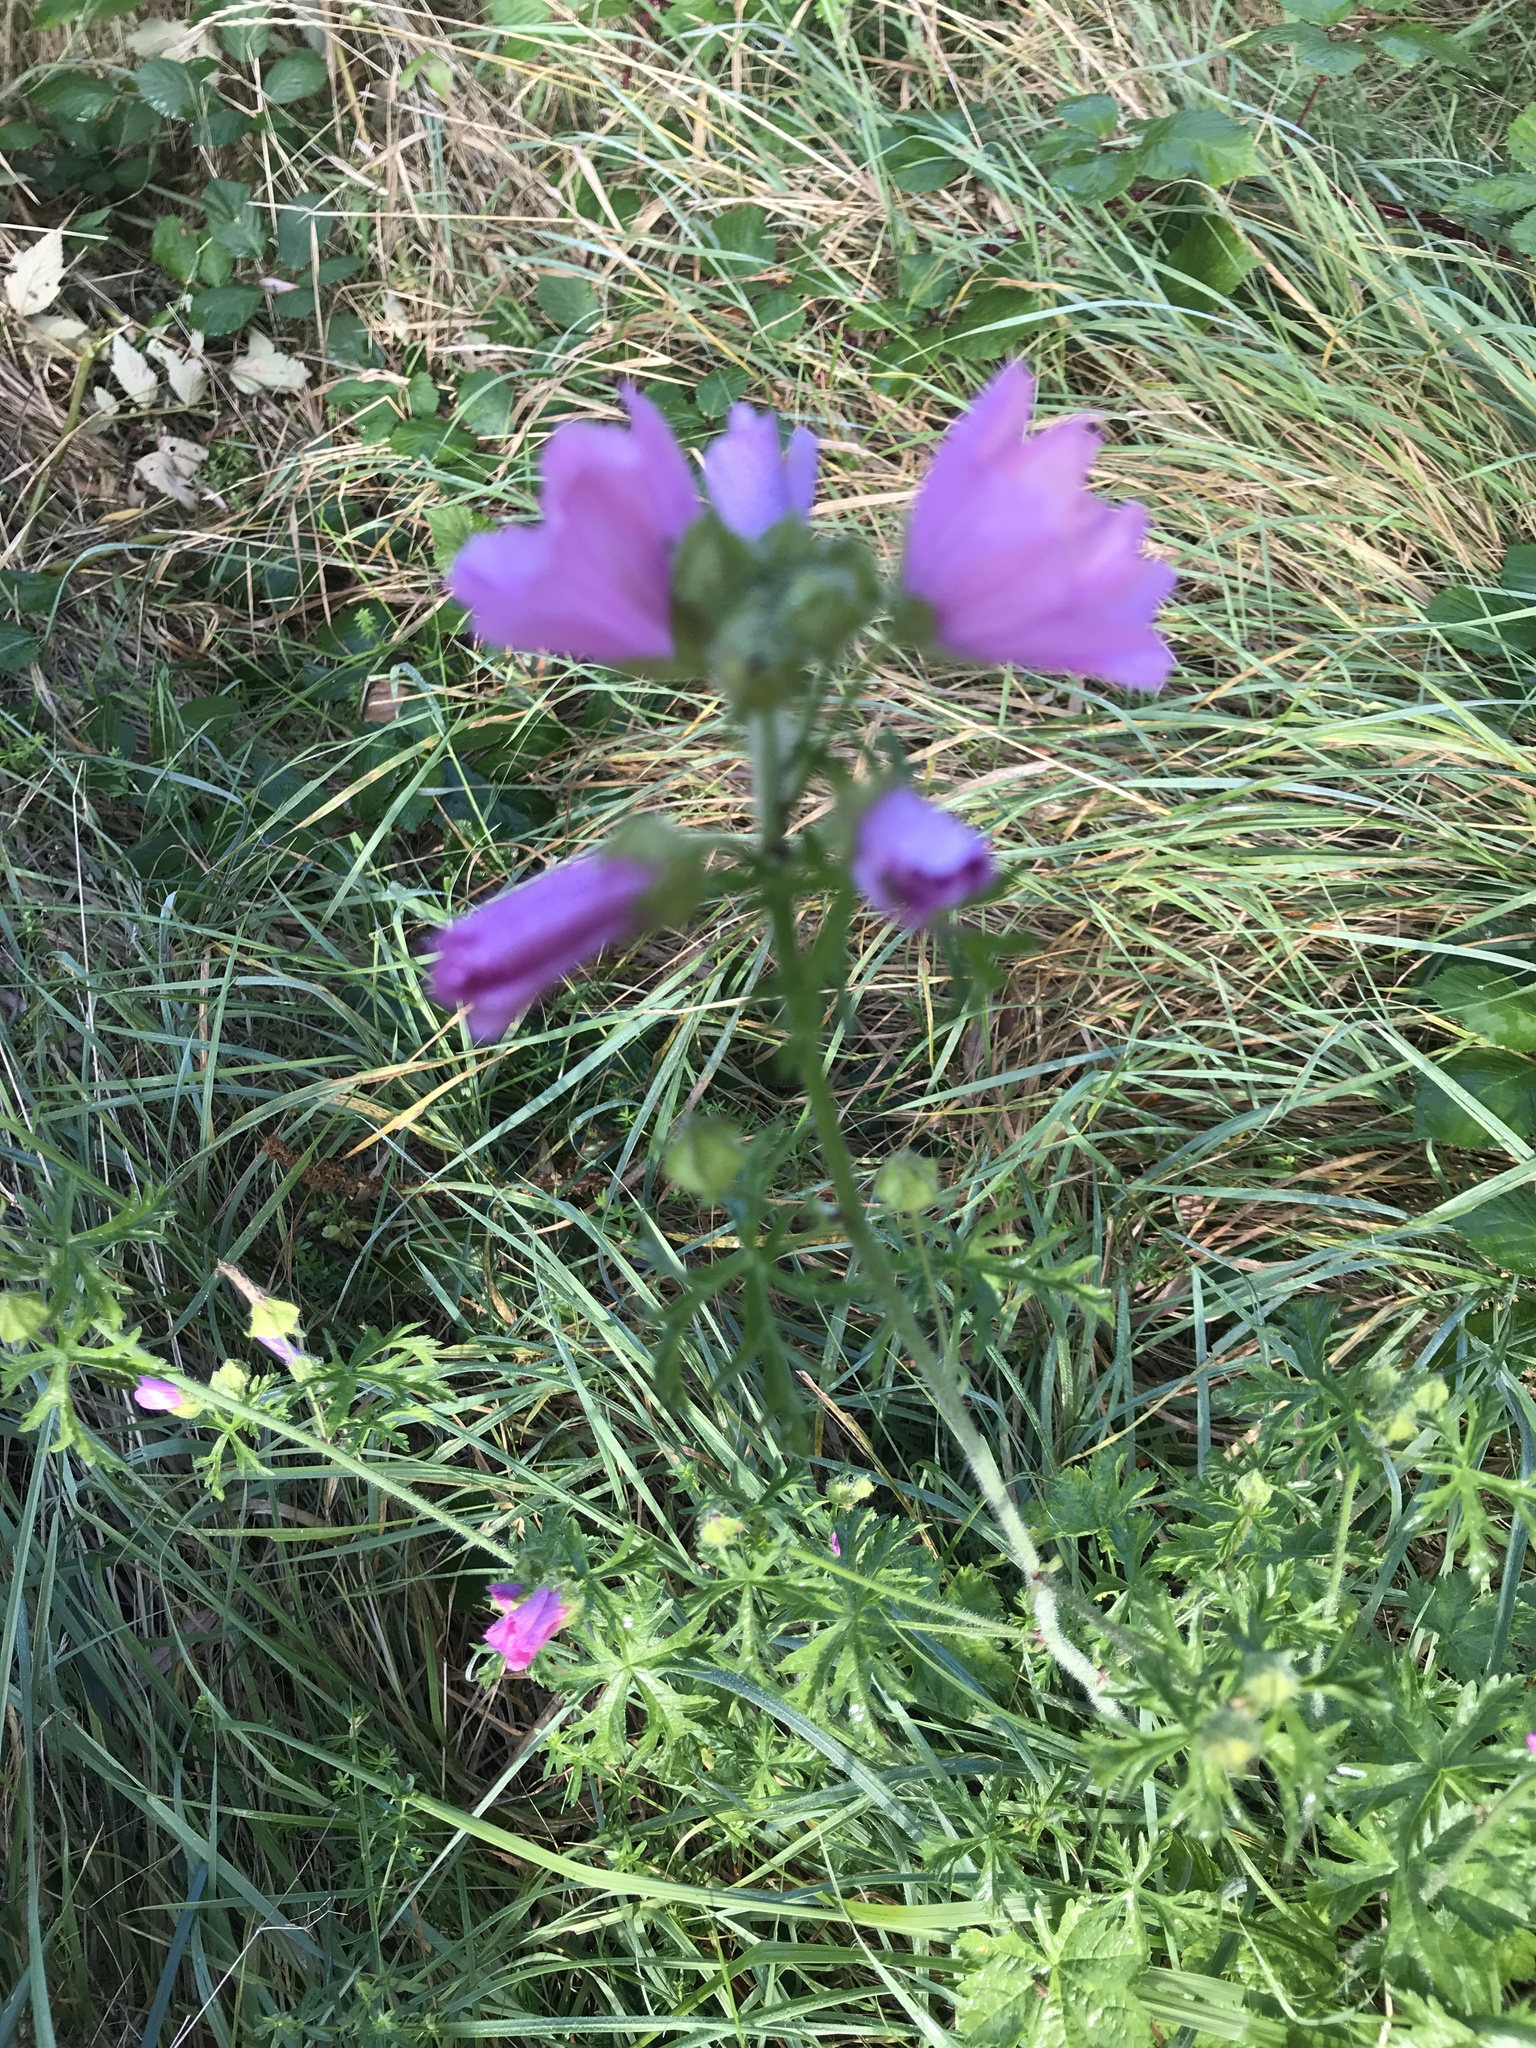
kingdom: Plantae
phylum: Tracheophyta
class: Magnoliopsida
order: Malvales
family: Malvaceae
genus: Malva
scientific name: Malva moschata
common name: Musk mallow
